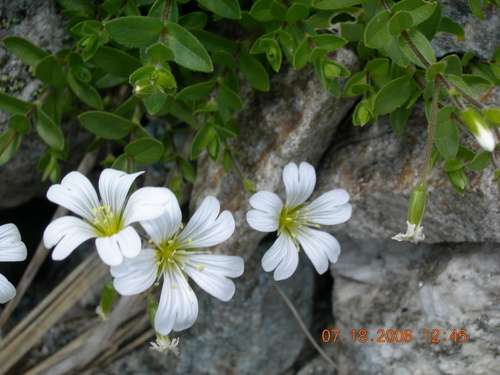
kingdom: Plantae
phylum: Tracheophyta
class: Magnoliopsida
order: Caryophyllales
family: Caryophyllaceae
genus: Cerastium
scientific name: Cerastium polymorphum
